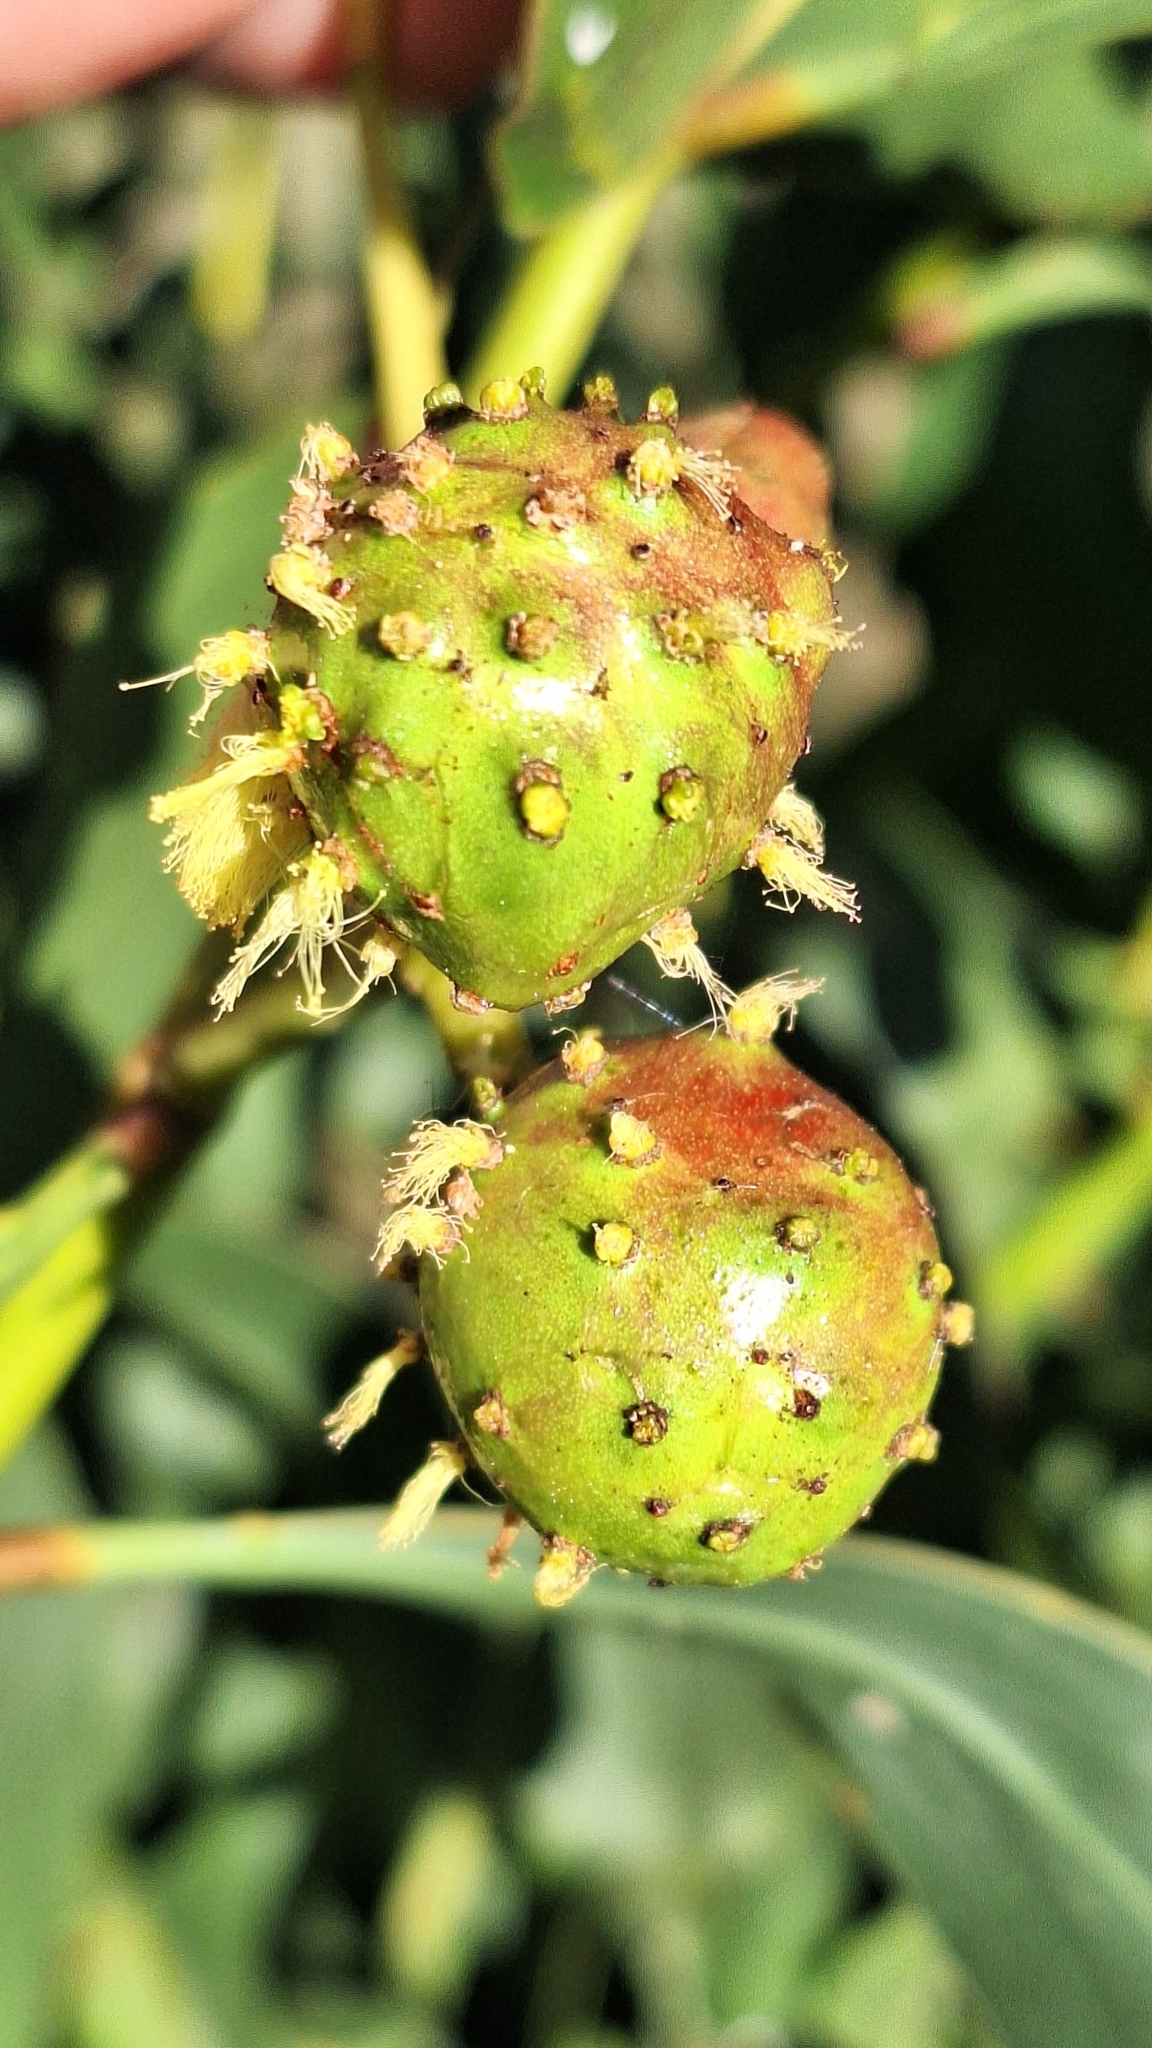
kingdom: Animalia
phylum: Arthropoda
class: Insecta
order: Hymenoptera
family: Pteromalidae
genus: Trichilogaster
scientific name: Trichilogaster signiventris
